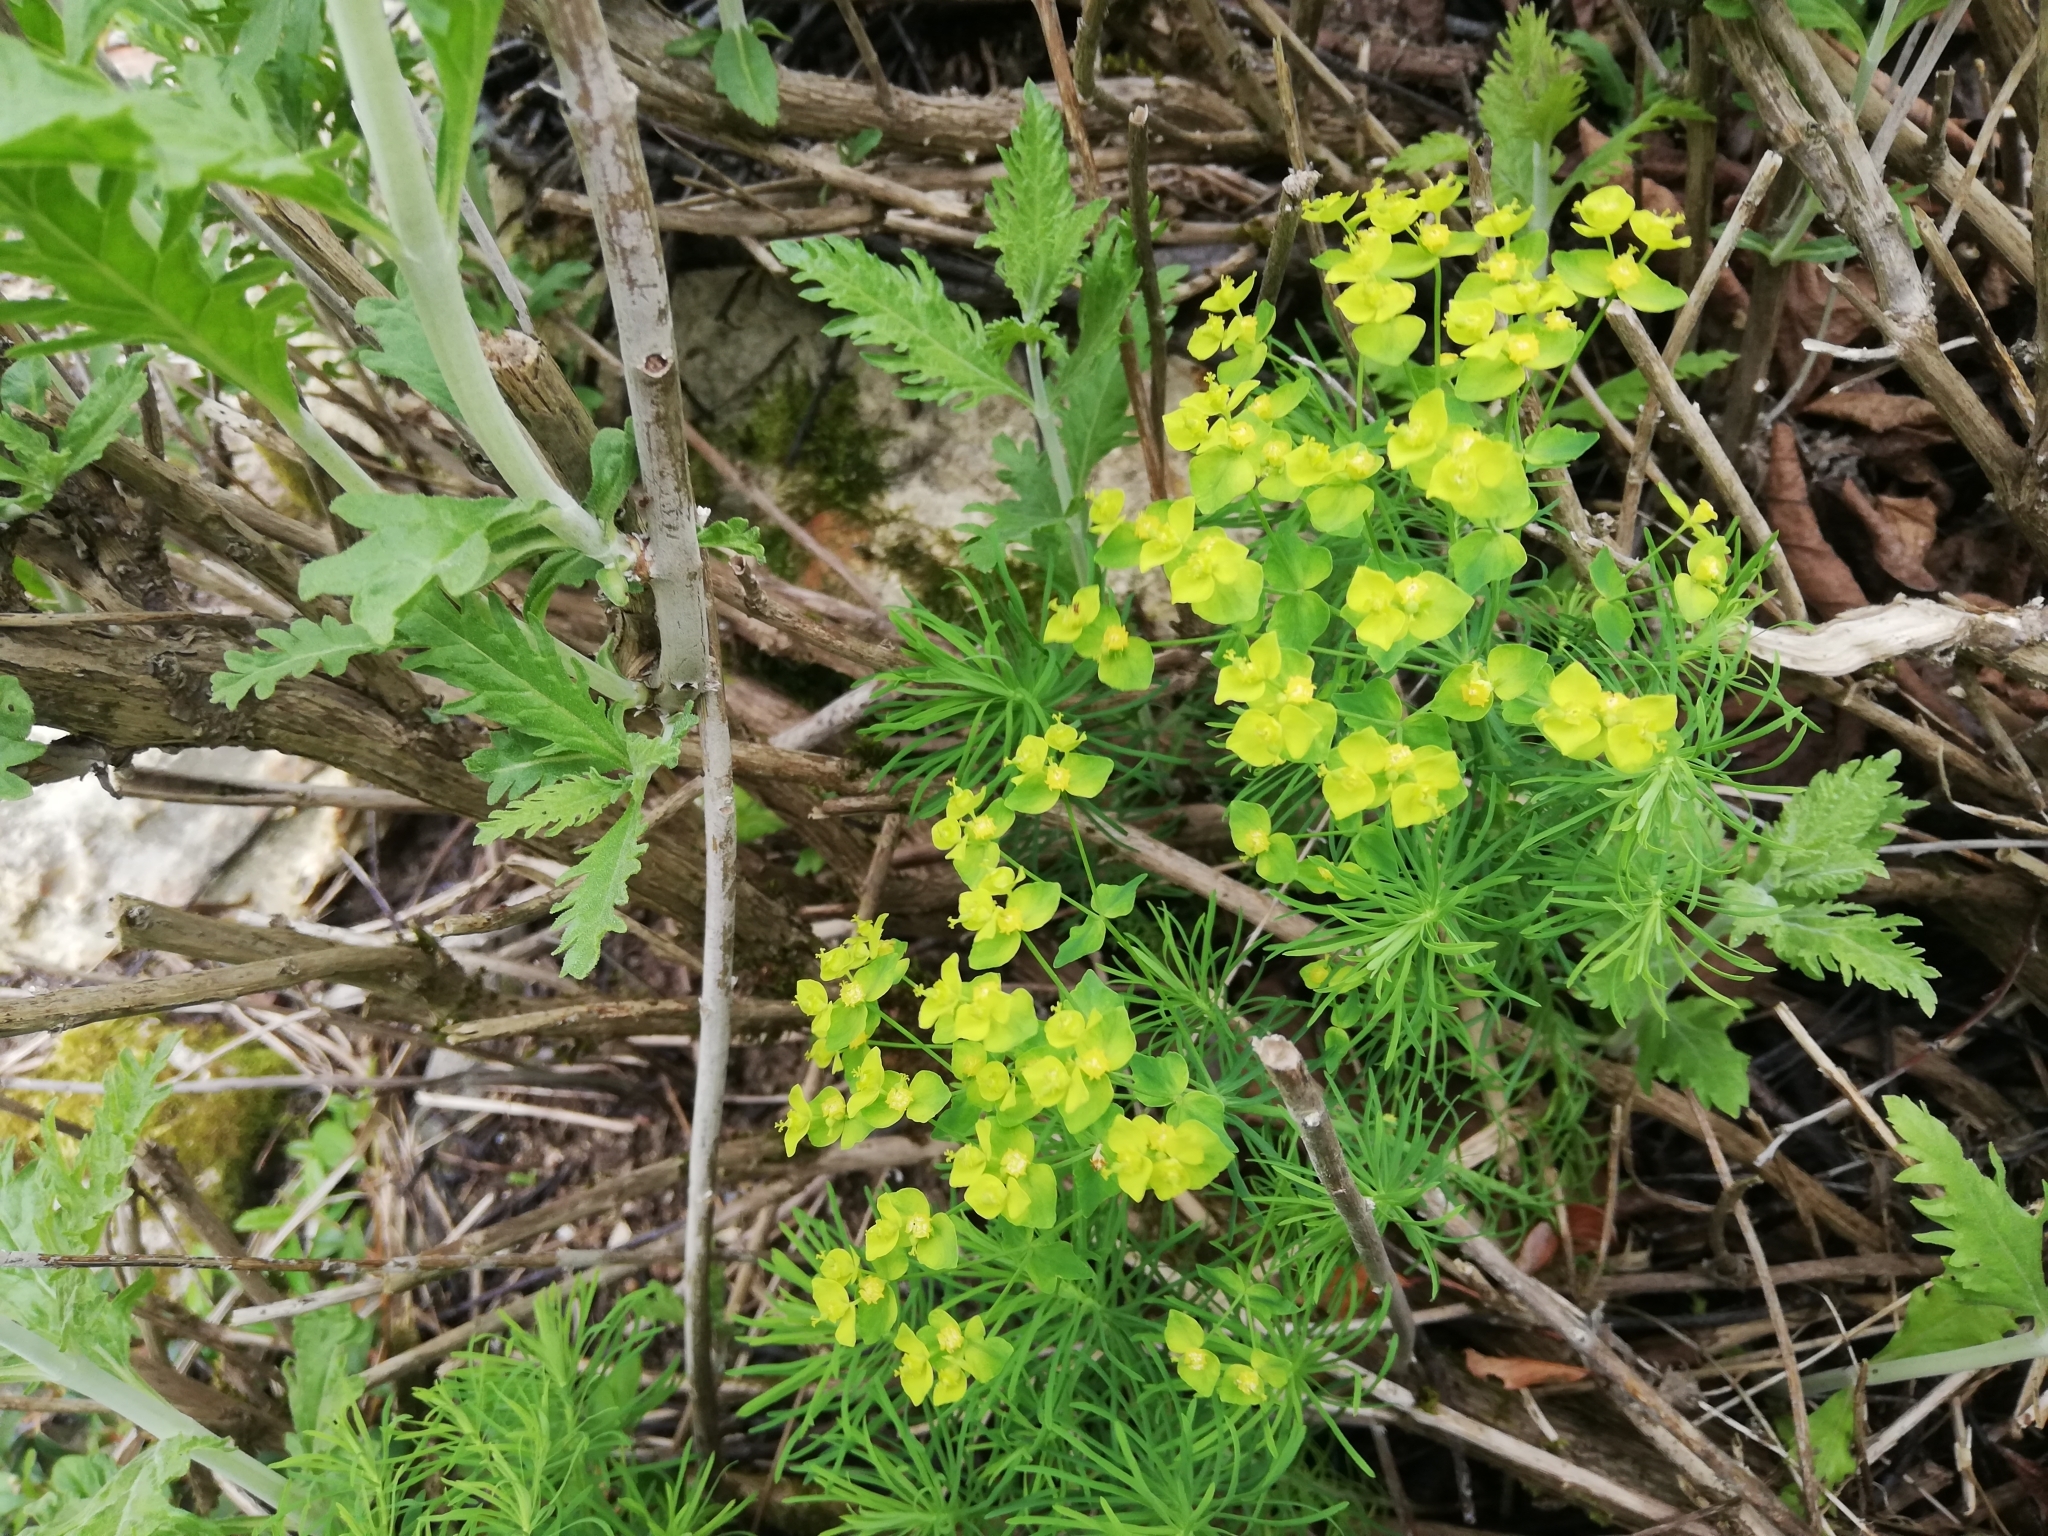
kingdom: Plantae
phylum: Tracheophyta
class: Magnoliopsida
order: Malpighiales
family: Euphorbiaceae
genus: Euphorbia
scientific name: Euphorbia cyparissias
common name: Cypress spurge
